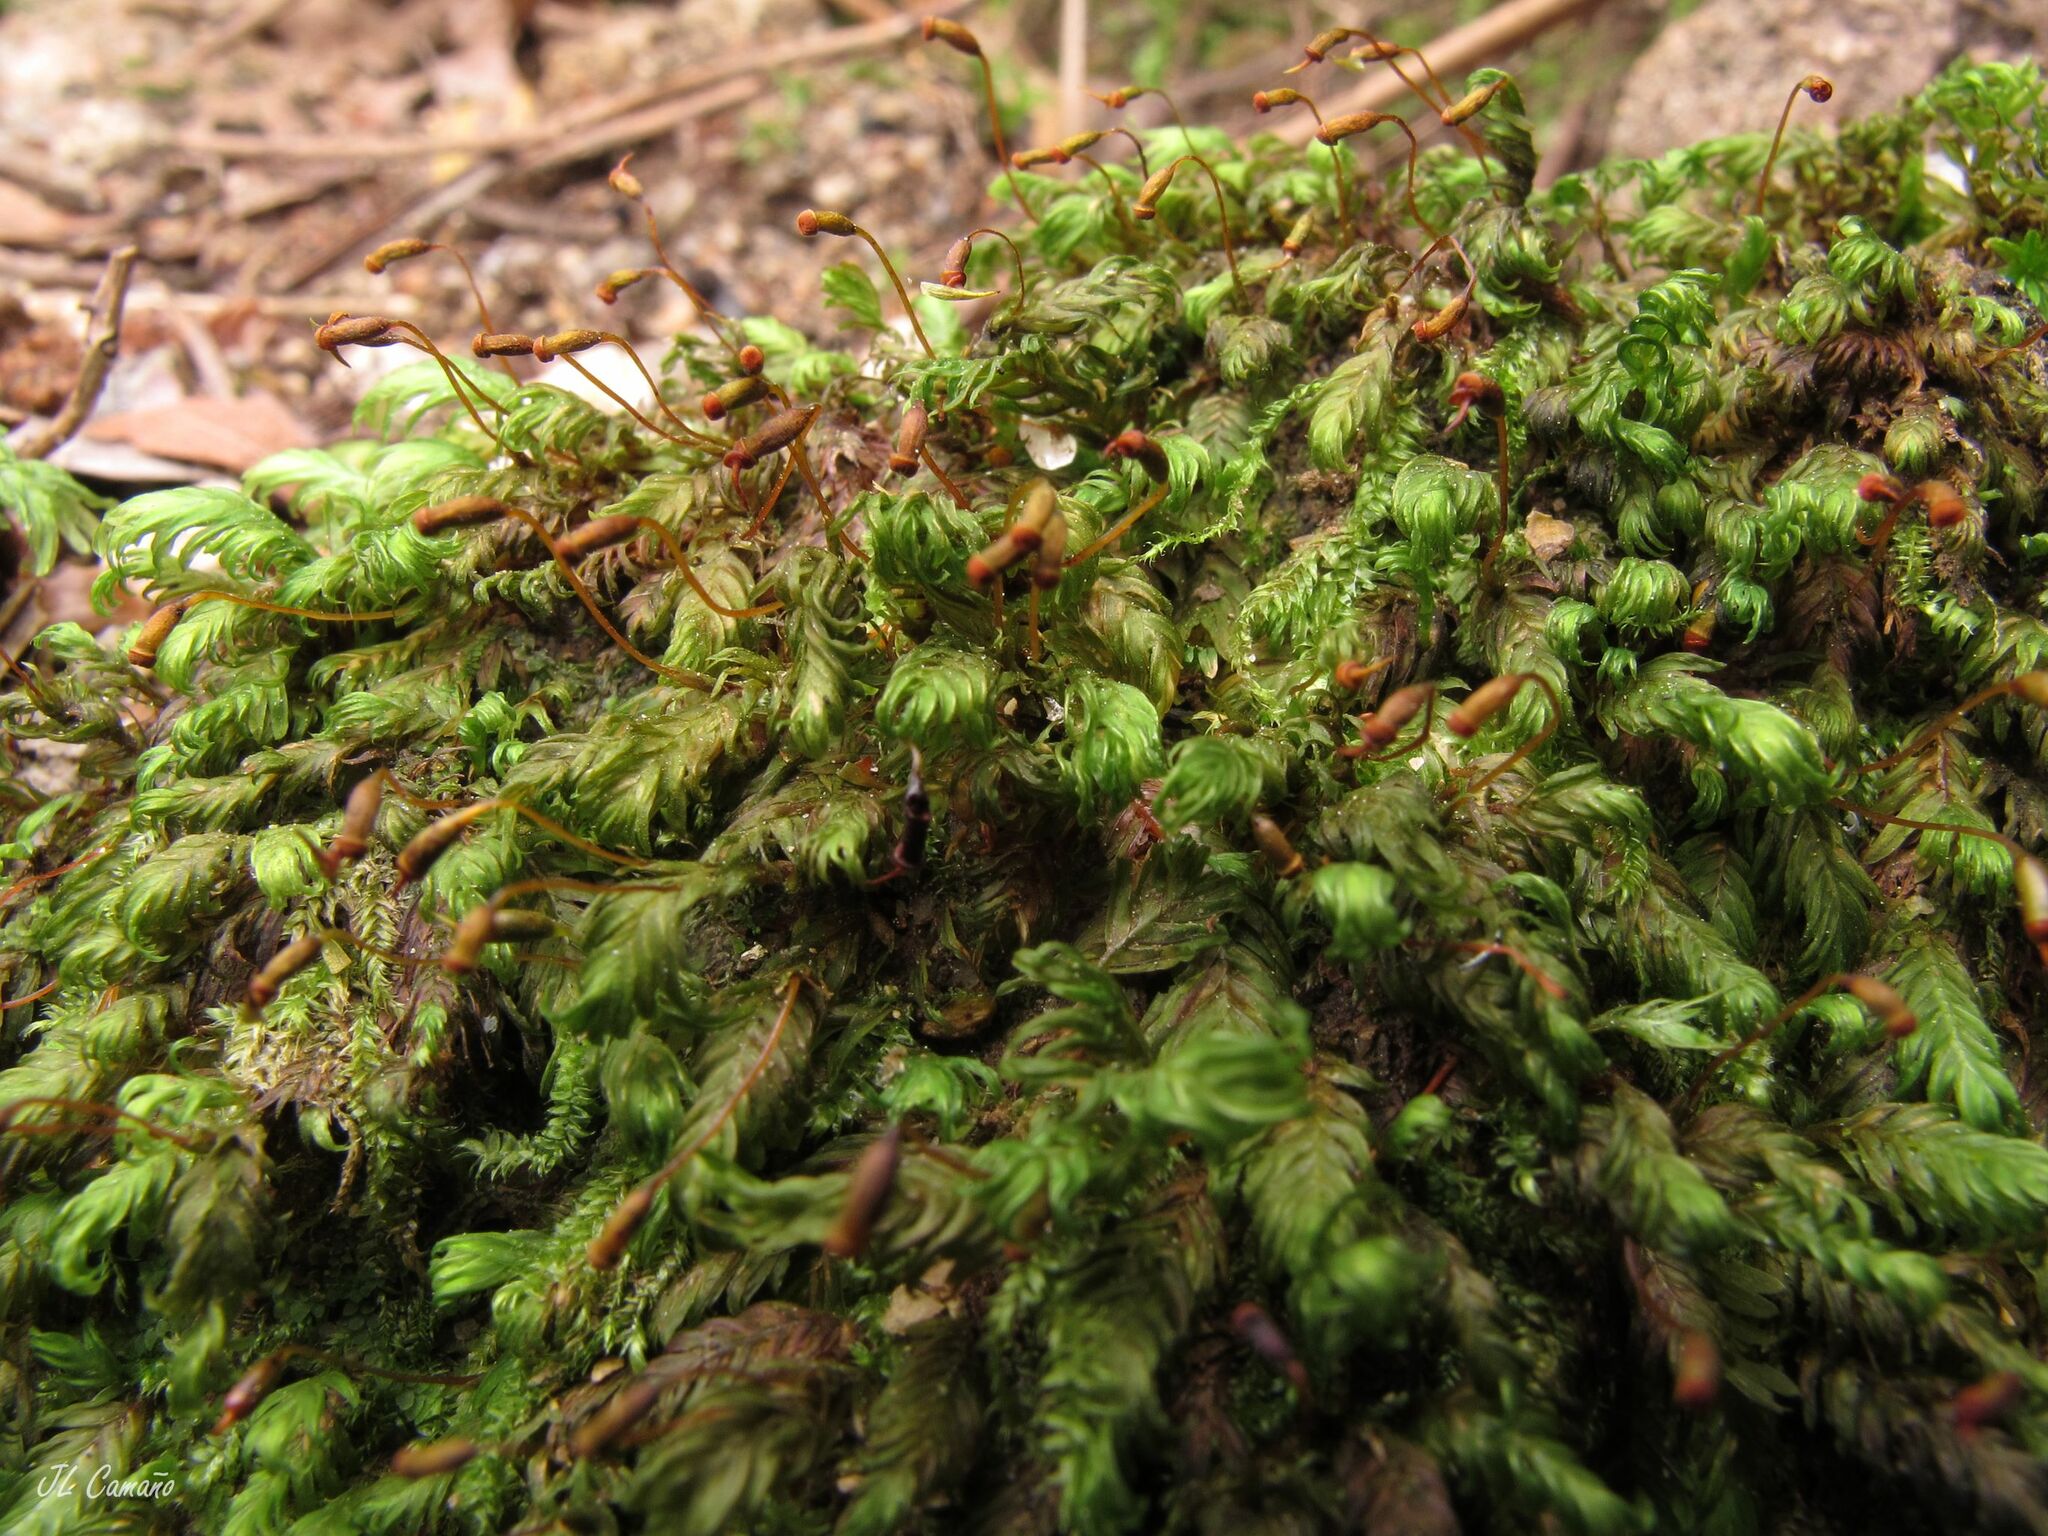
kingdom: Plantae
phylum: Bryophyta
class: Bryopsida
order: Dicranales
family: Fissidentaceae
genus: Fissidens
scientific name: Fissidens dubius
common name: Rock pocket moss
